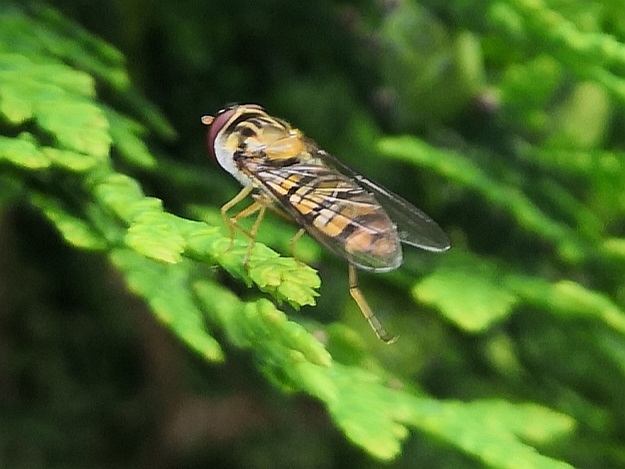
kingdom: Animalia
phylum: Arthropoda
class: Insecta
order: Diptera
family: Syrphidae
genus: Episyrphus
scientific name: Episyrphus balteatus
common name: Marmalade hoverfly
